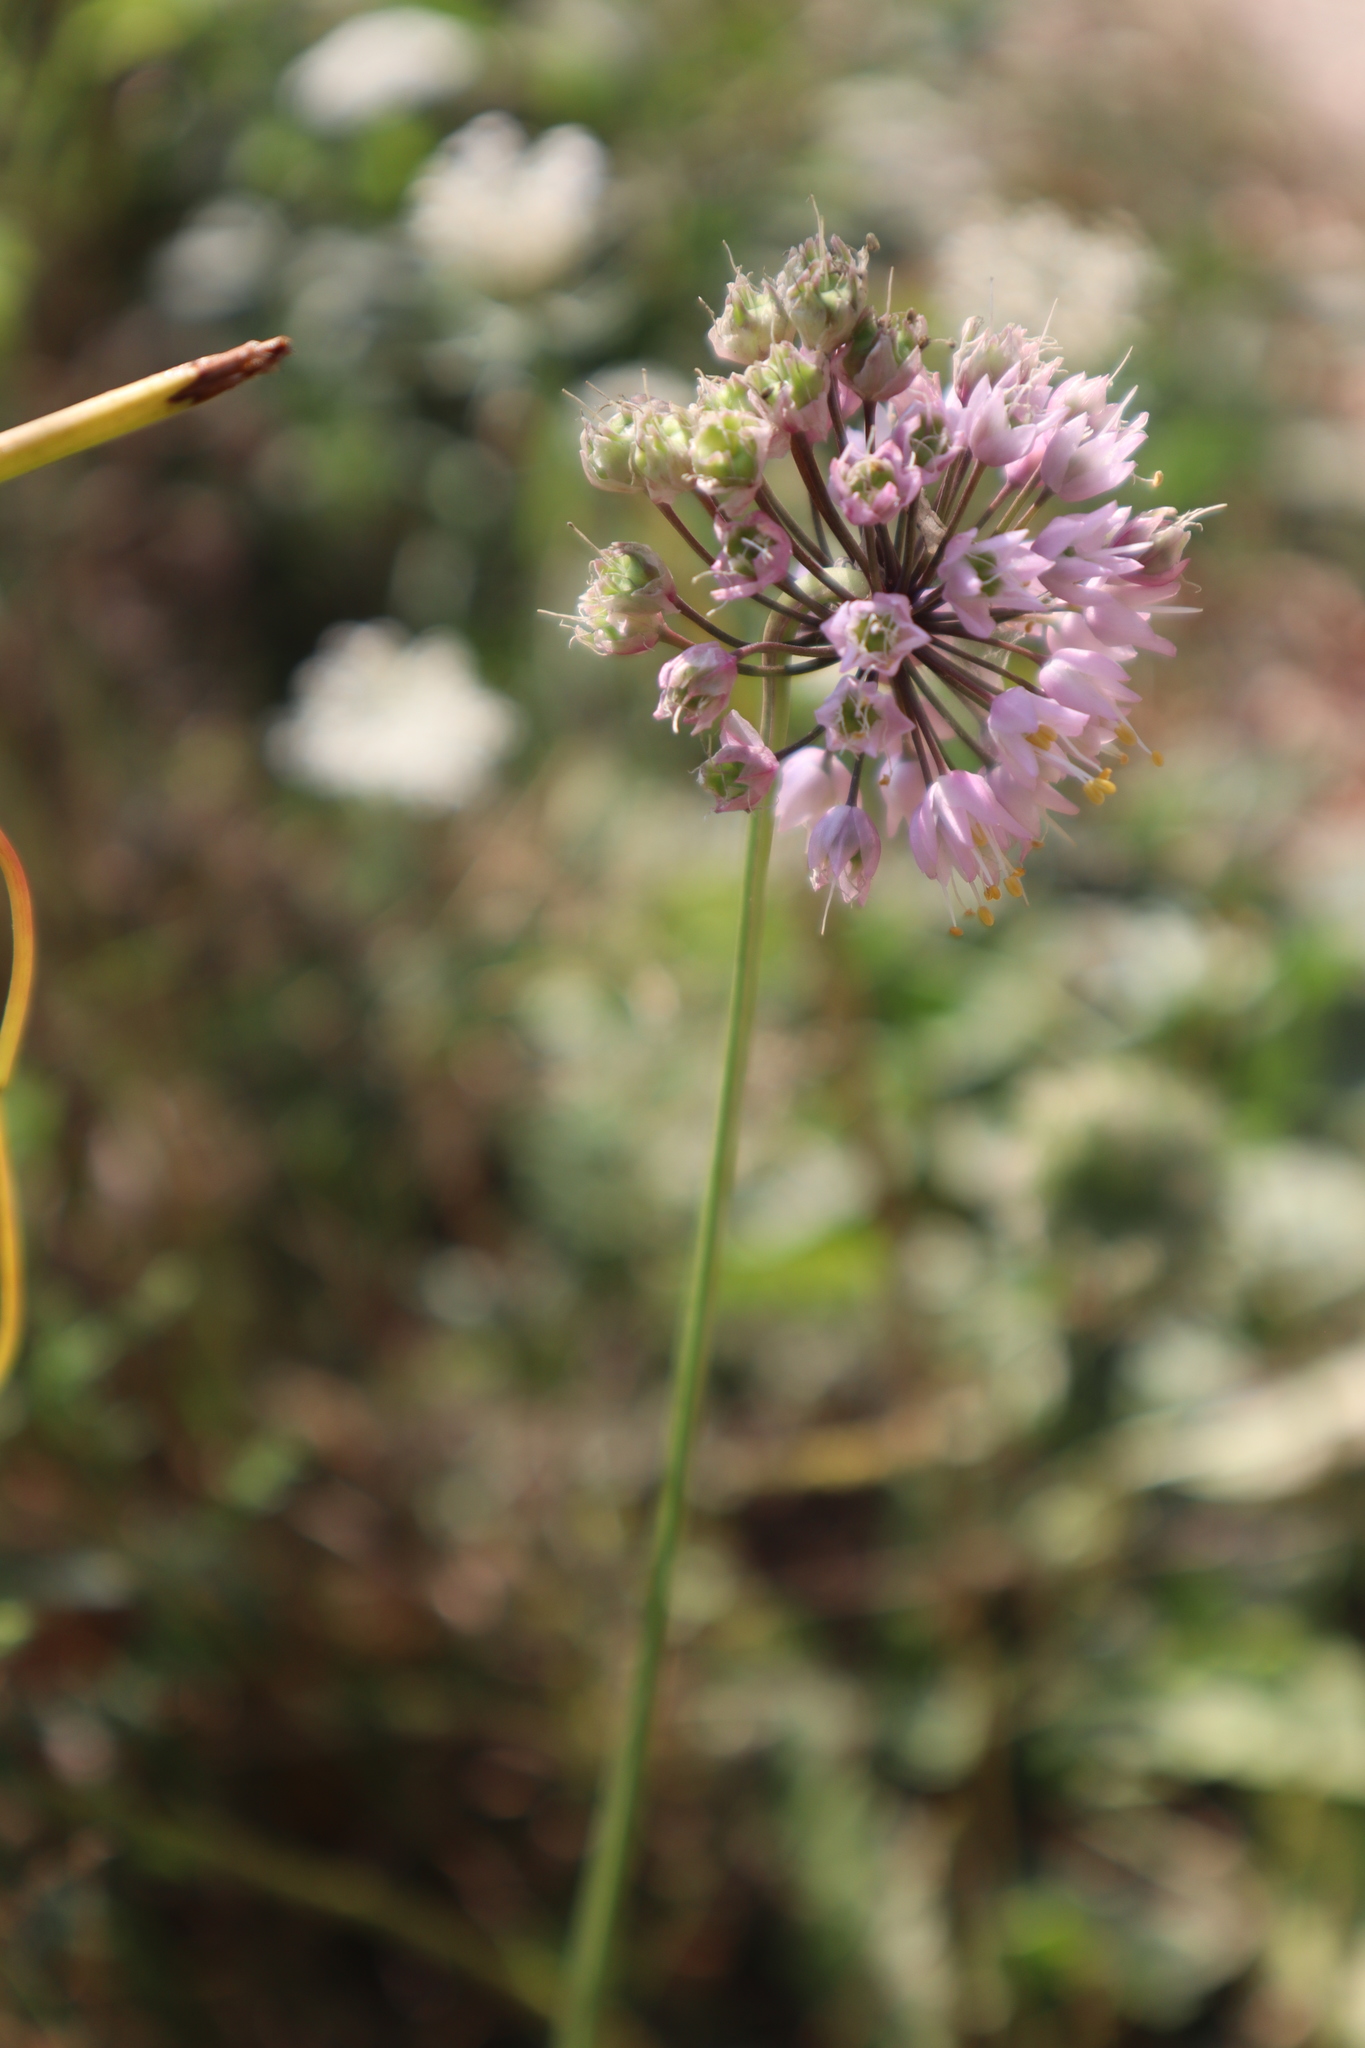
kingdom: Plantae
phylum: Tracheophyta
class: Liliopsida
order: Asparagales
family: Amaryllidaceae
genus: Allium
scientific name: Allium cernuum
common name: Nodding onion
